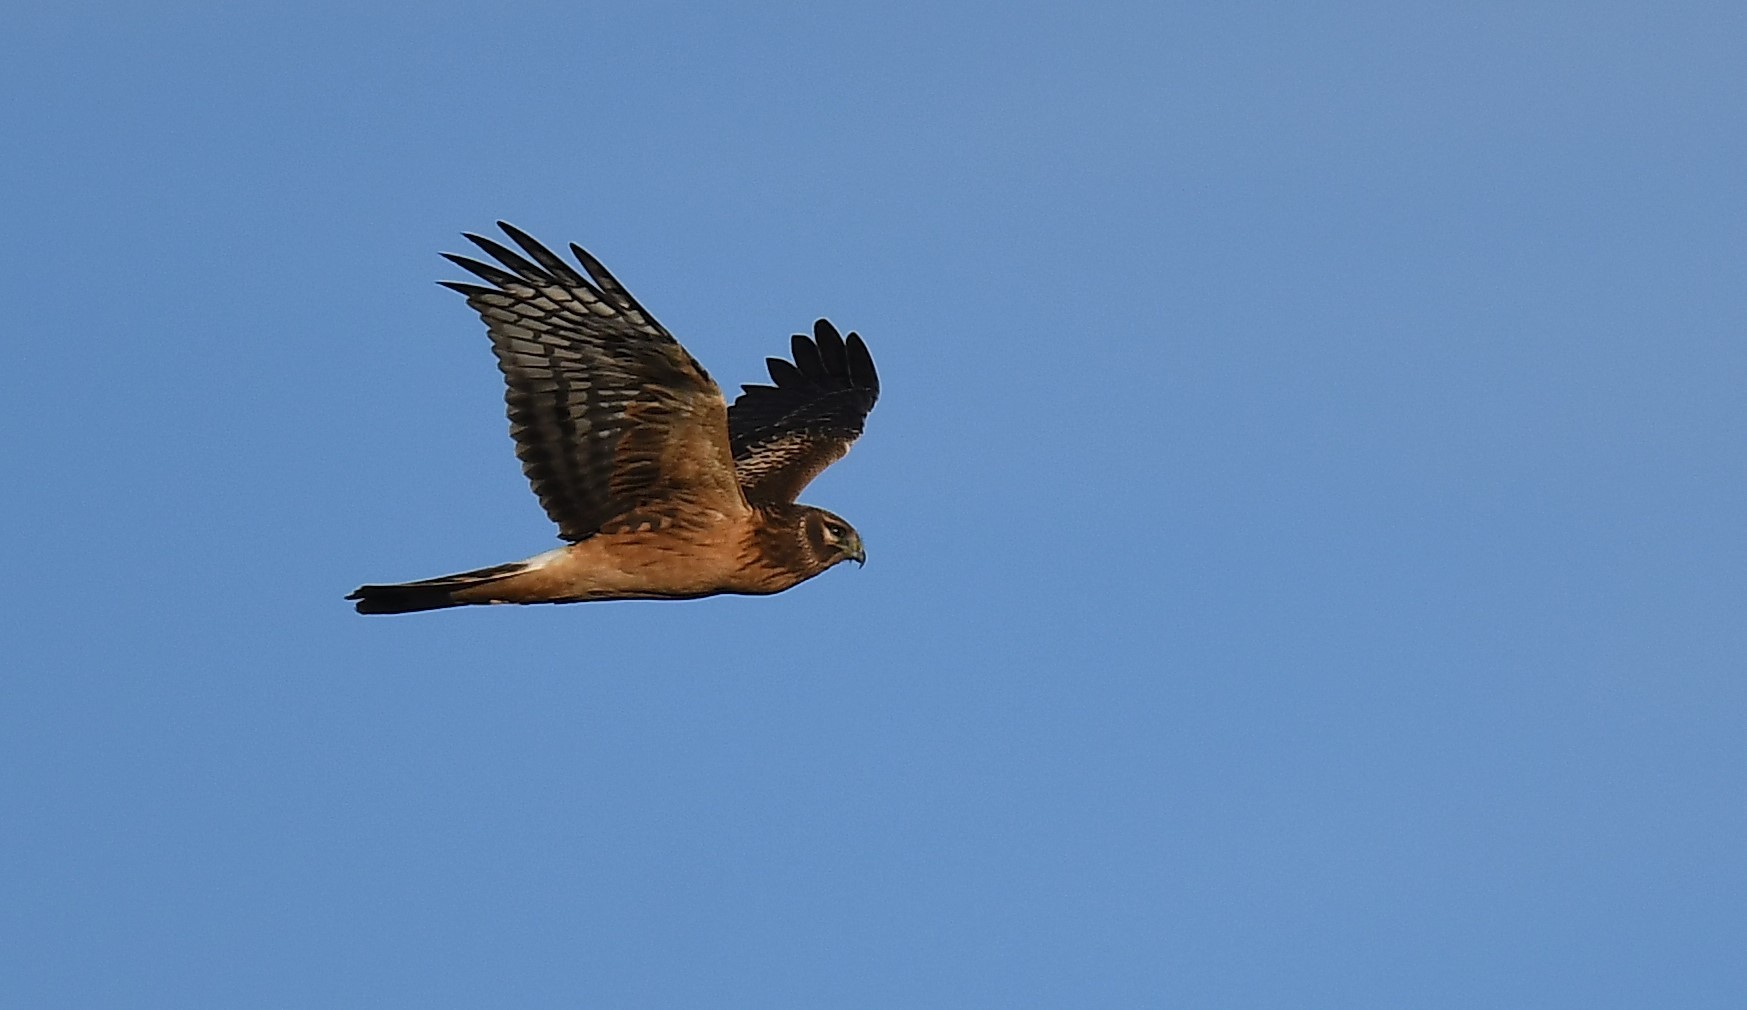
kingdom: Animalia
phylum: Chordata
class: Aves
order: Accipitriformes
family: Accipitridae
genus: Circus
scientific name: Circus cyaneus
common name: Hen harrier
